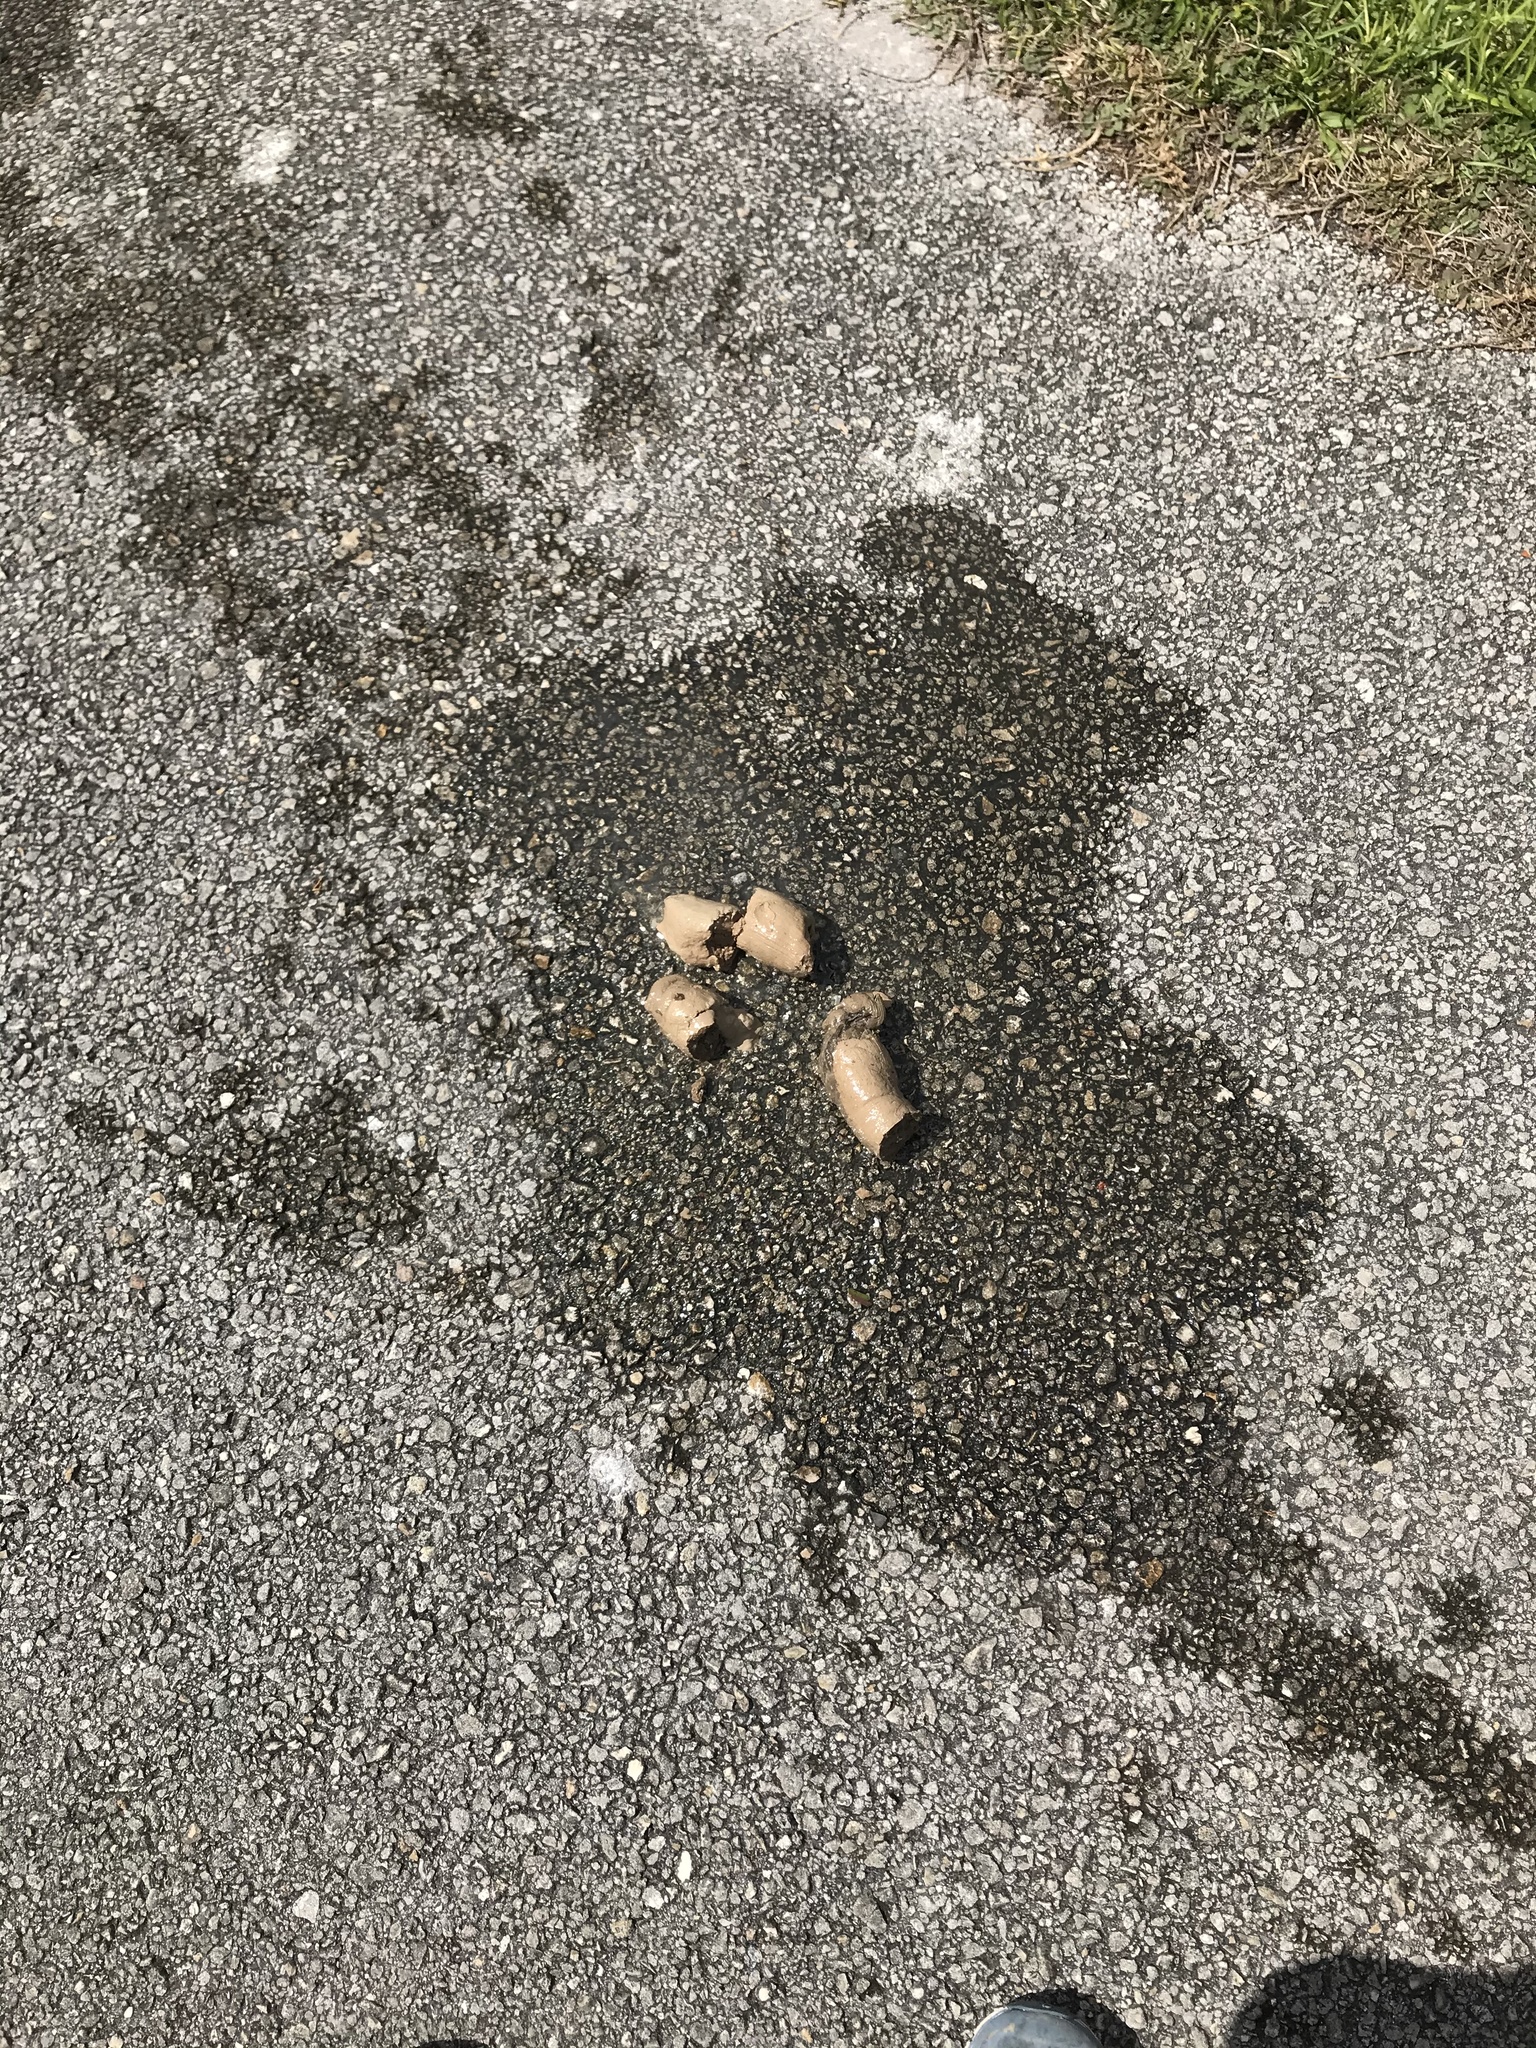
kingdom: Animalia
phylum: Chordata
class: Crocodylia
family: Alligatoridae
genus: Alligator
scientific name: Alligator mississippiensis
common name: American alligator
